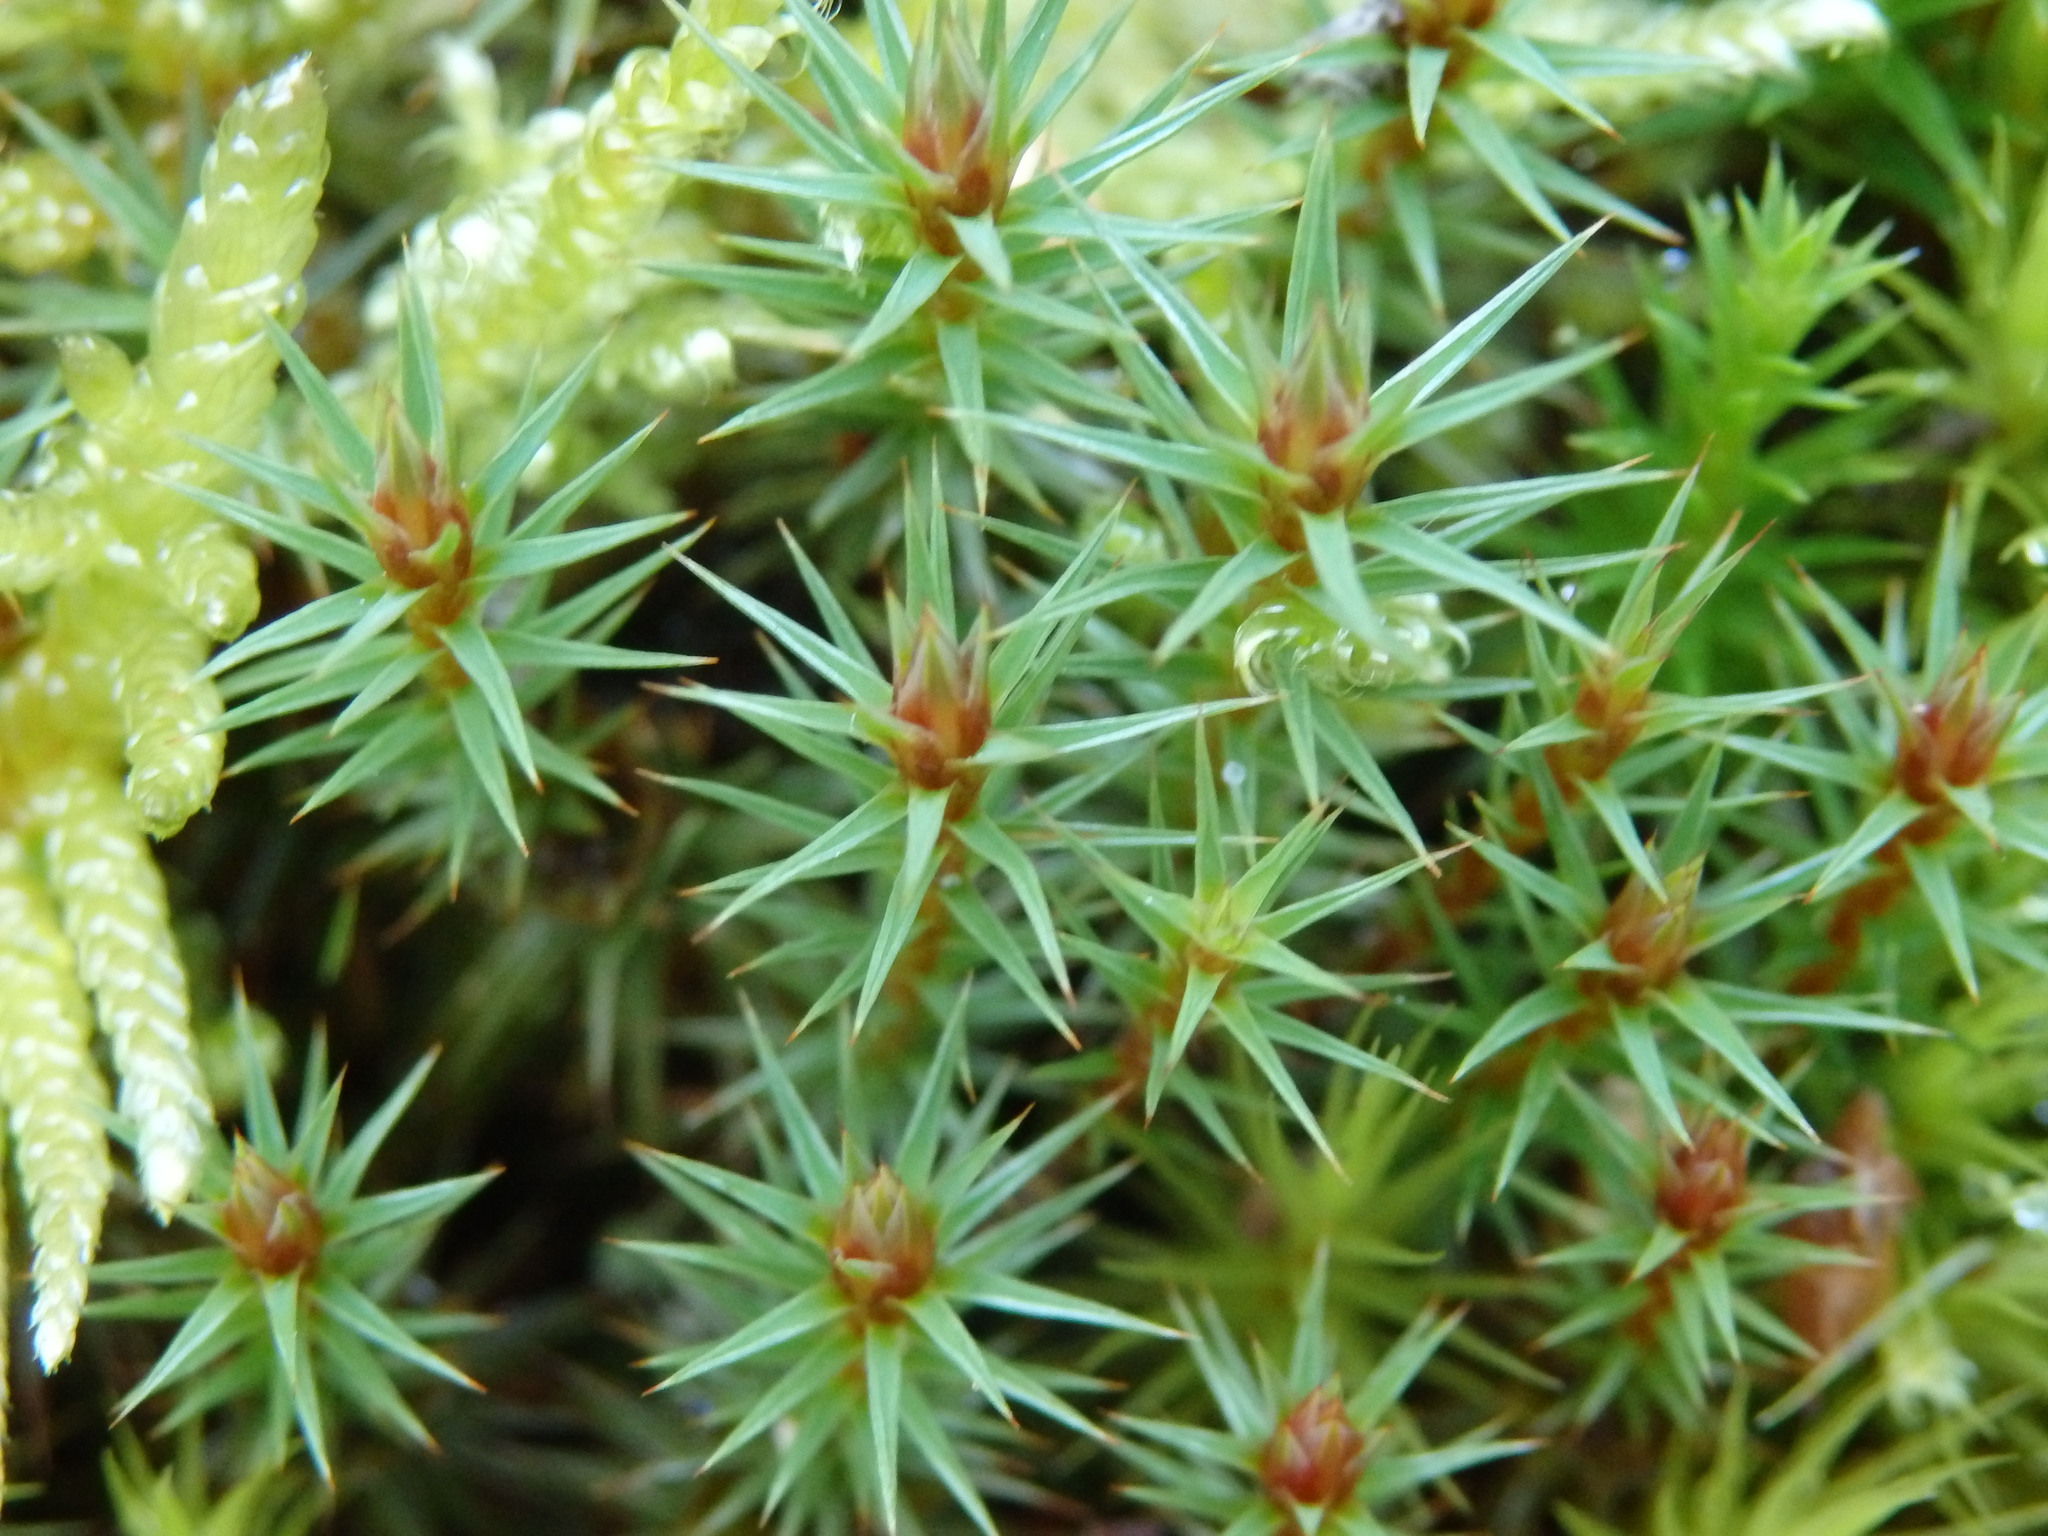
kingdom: Plantae
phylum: Bryophyta
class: Polytrichopsida
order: Polytrichales
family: Polytrichaceae
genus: Polytrichum
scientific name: Polytrichum juniperinum
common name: Juniper haircap moss
